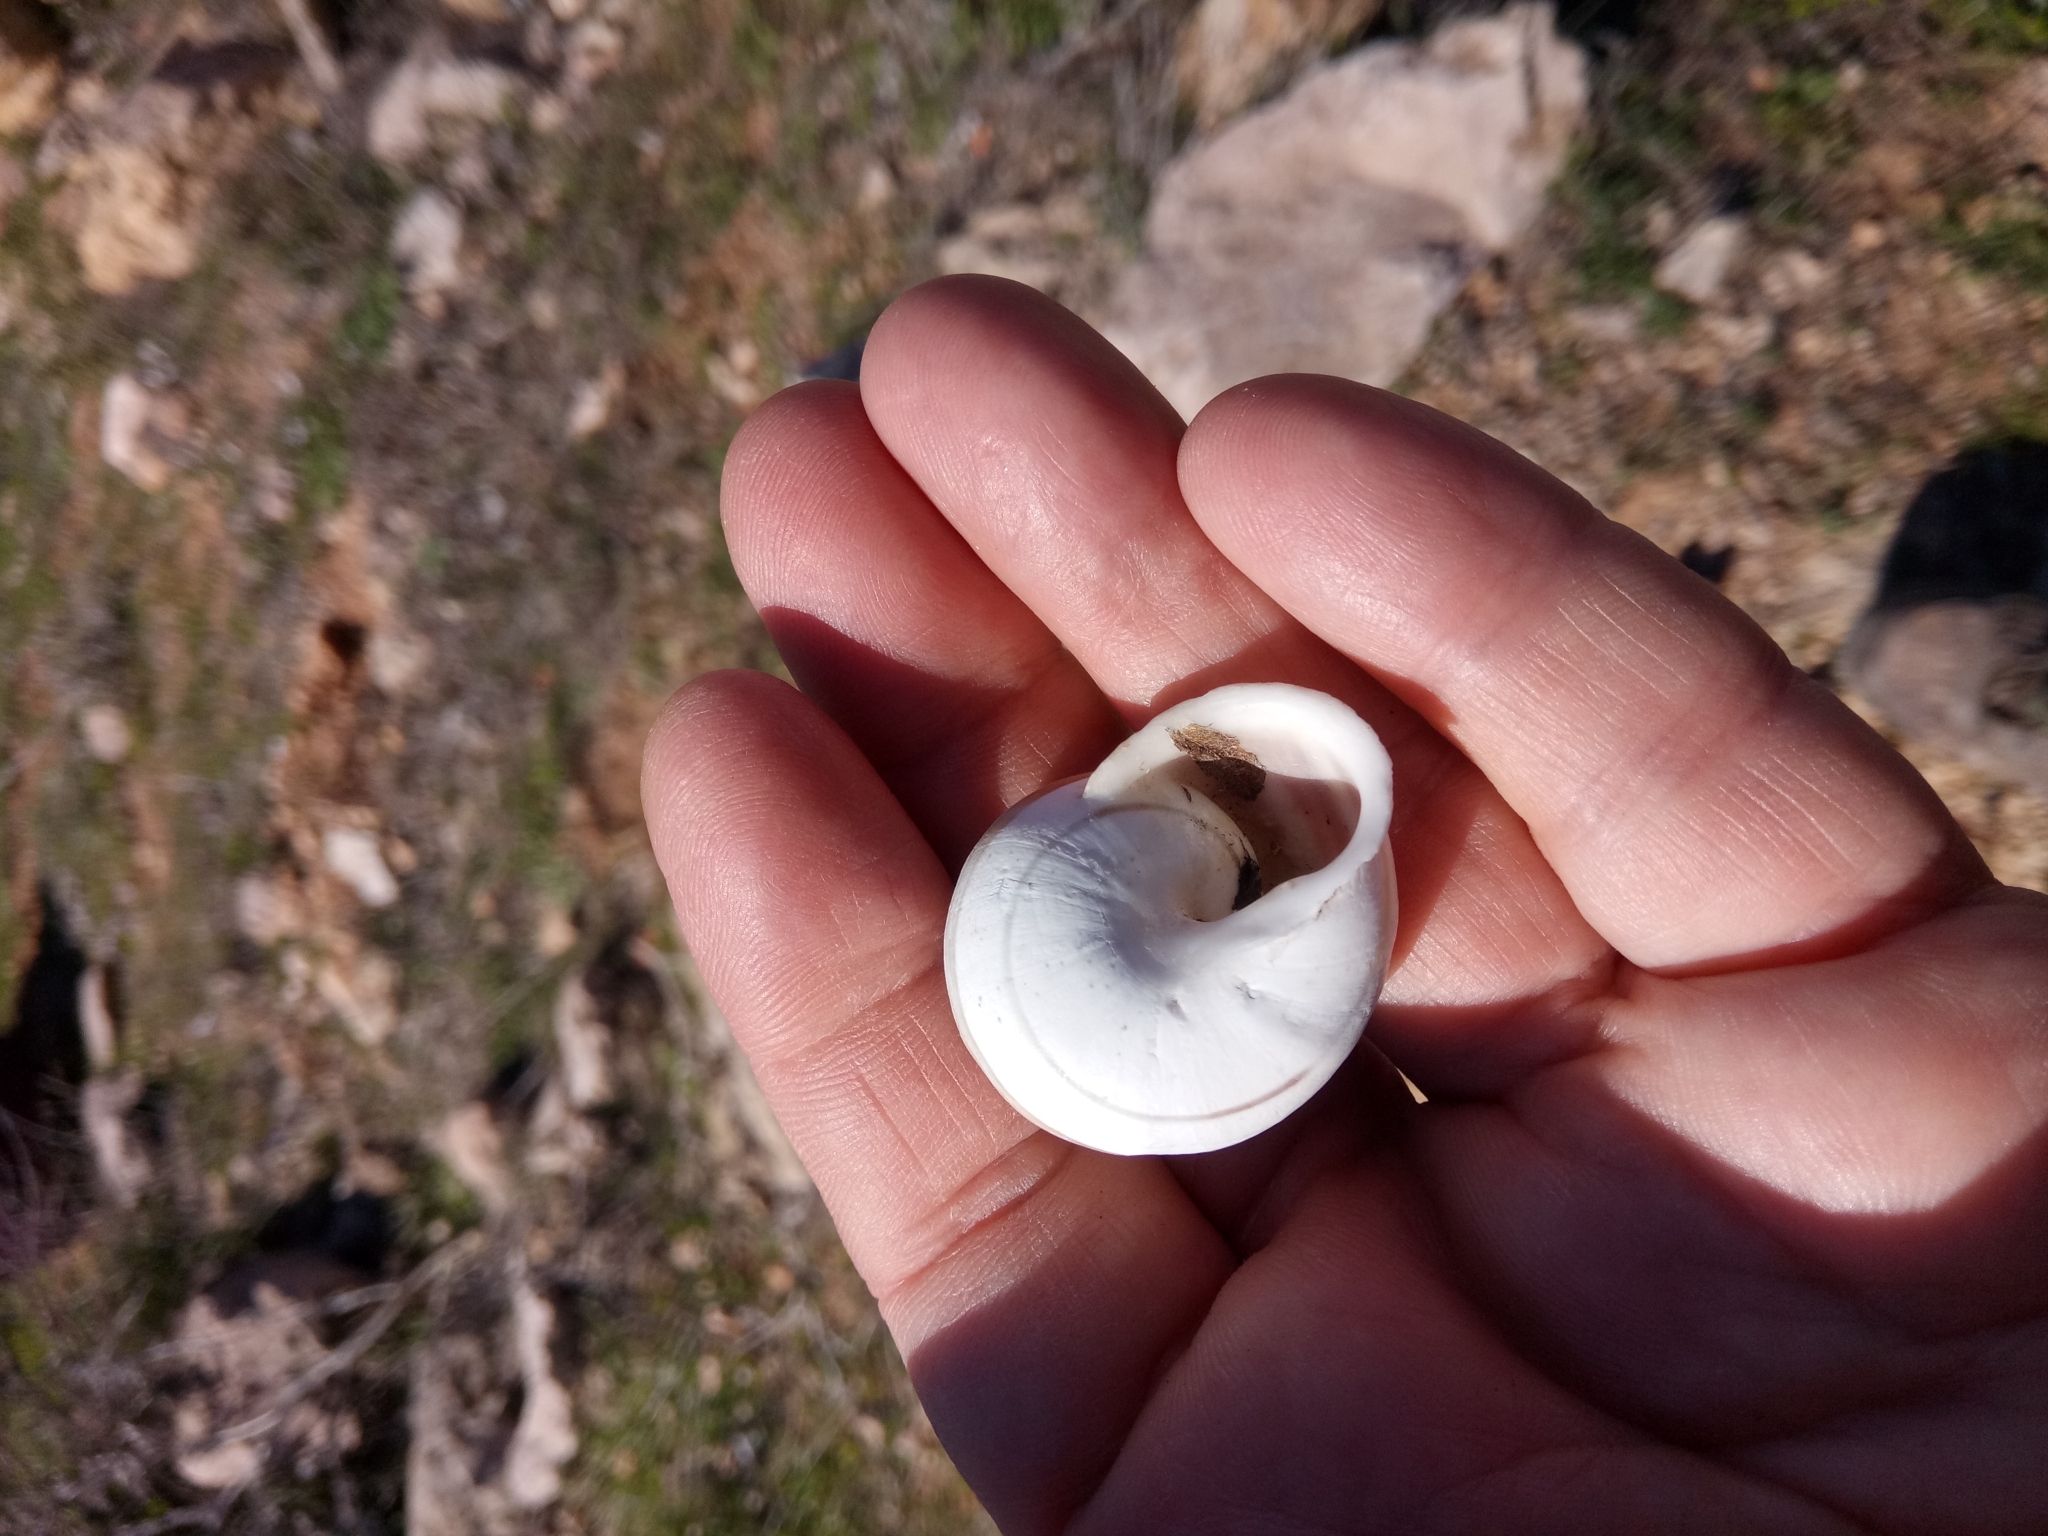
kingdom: Animalia
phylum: Mollusca
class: Gastropoda
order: Stylommatophora
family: Helicidae
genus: Eobania
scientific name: Eobania vermiculata
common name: Chocolateband snail
